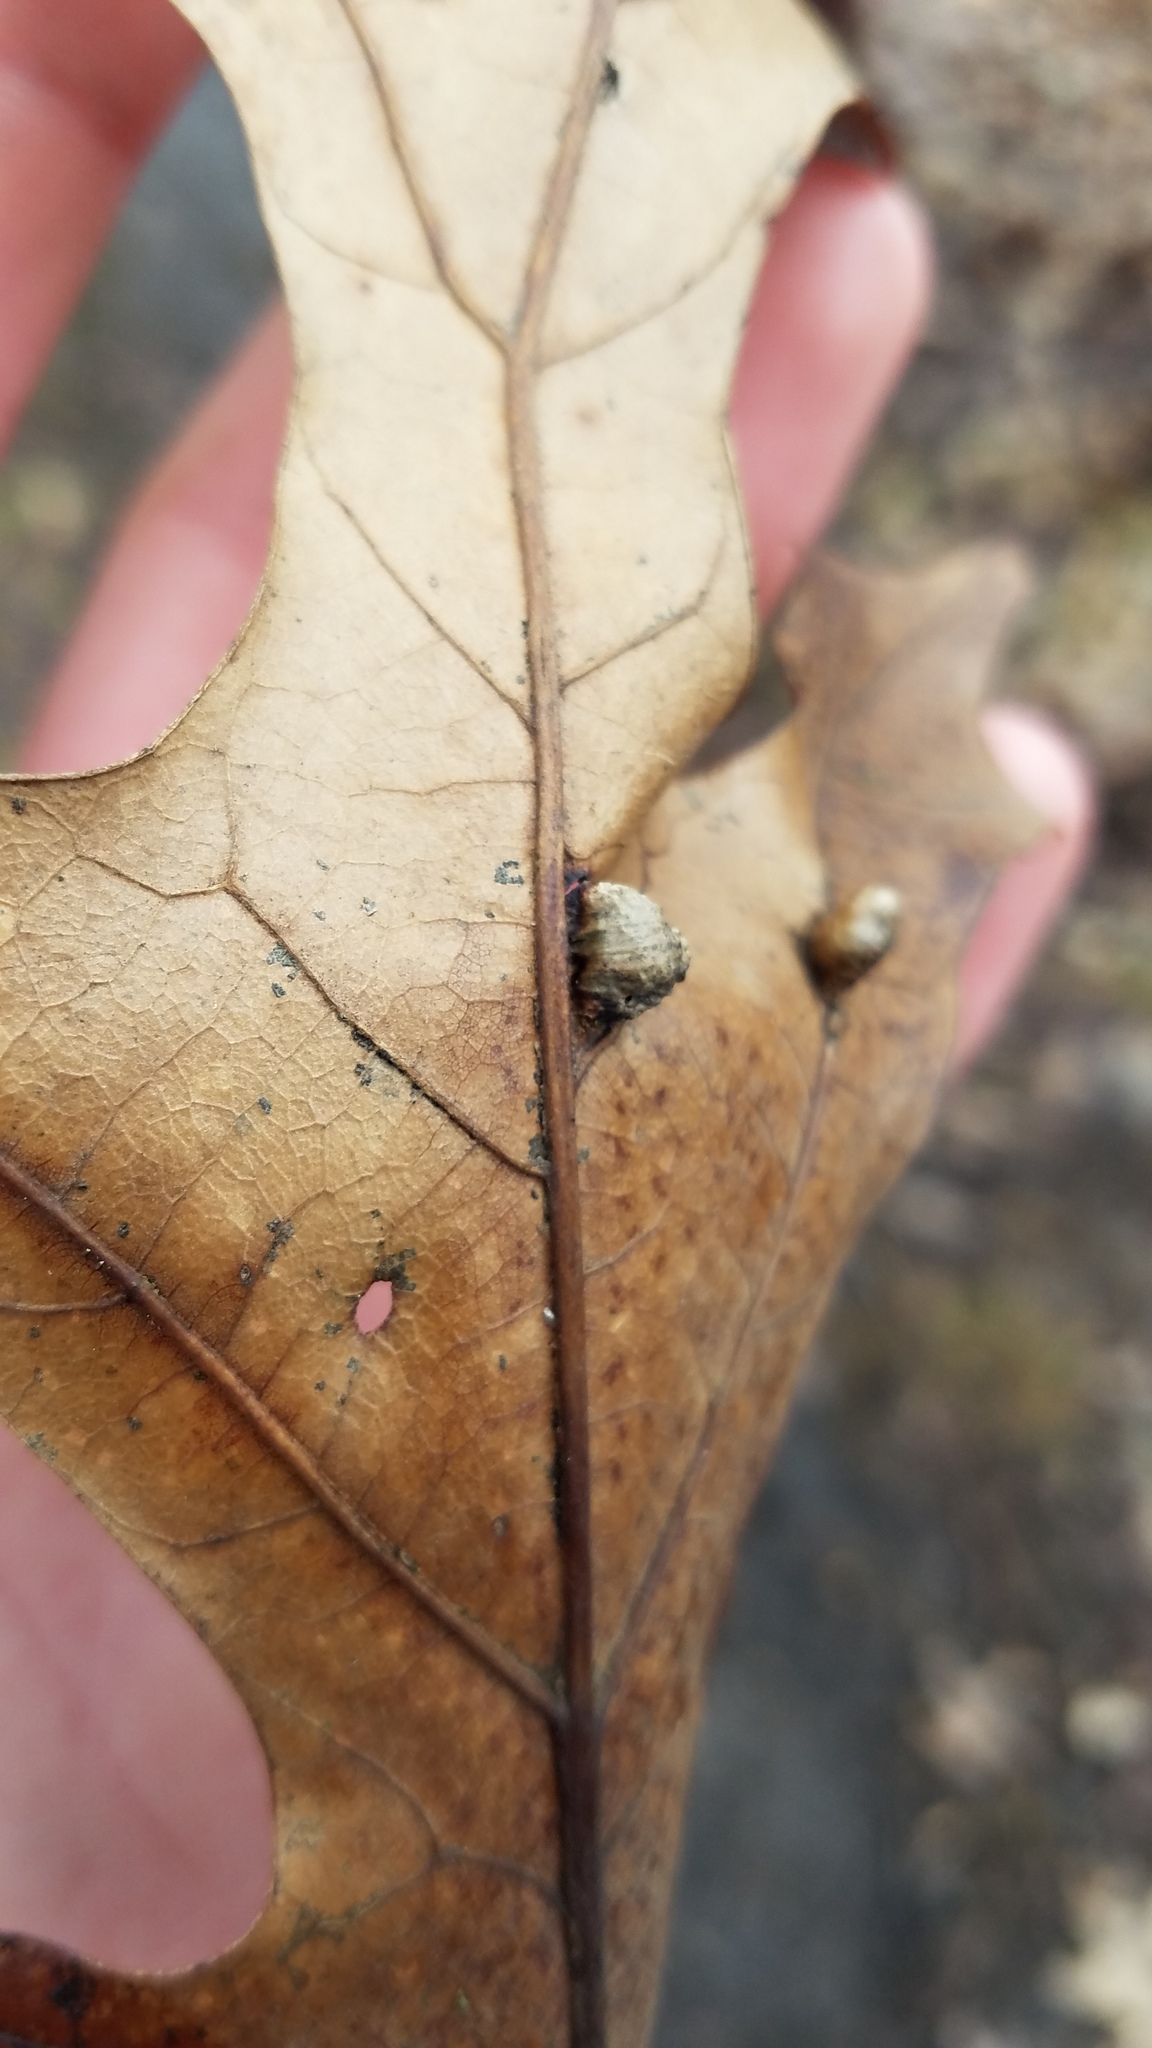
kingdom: Animalia
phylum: Arthropoda
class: Insecta
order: Diptera
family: Cecidomyiidae
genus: Macrodiplosis
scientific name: Macrodiplosis majalis
